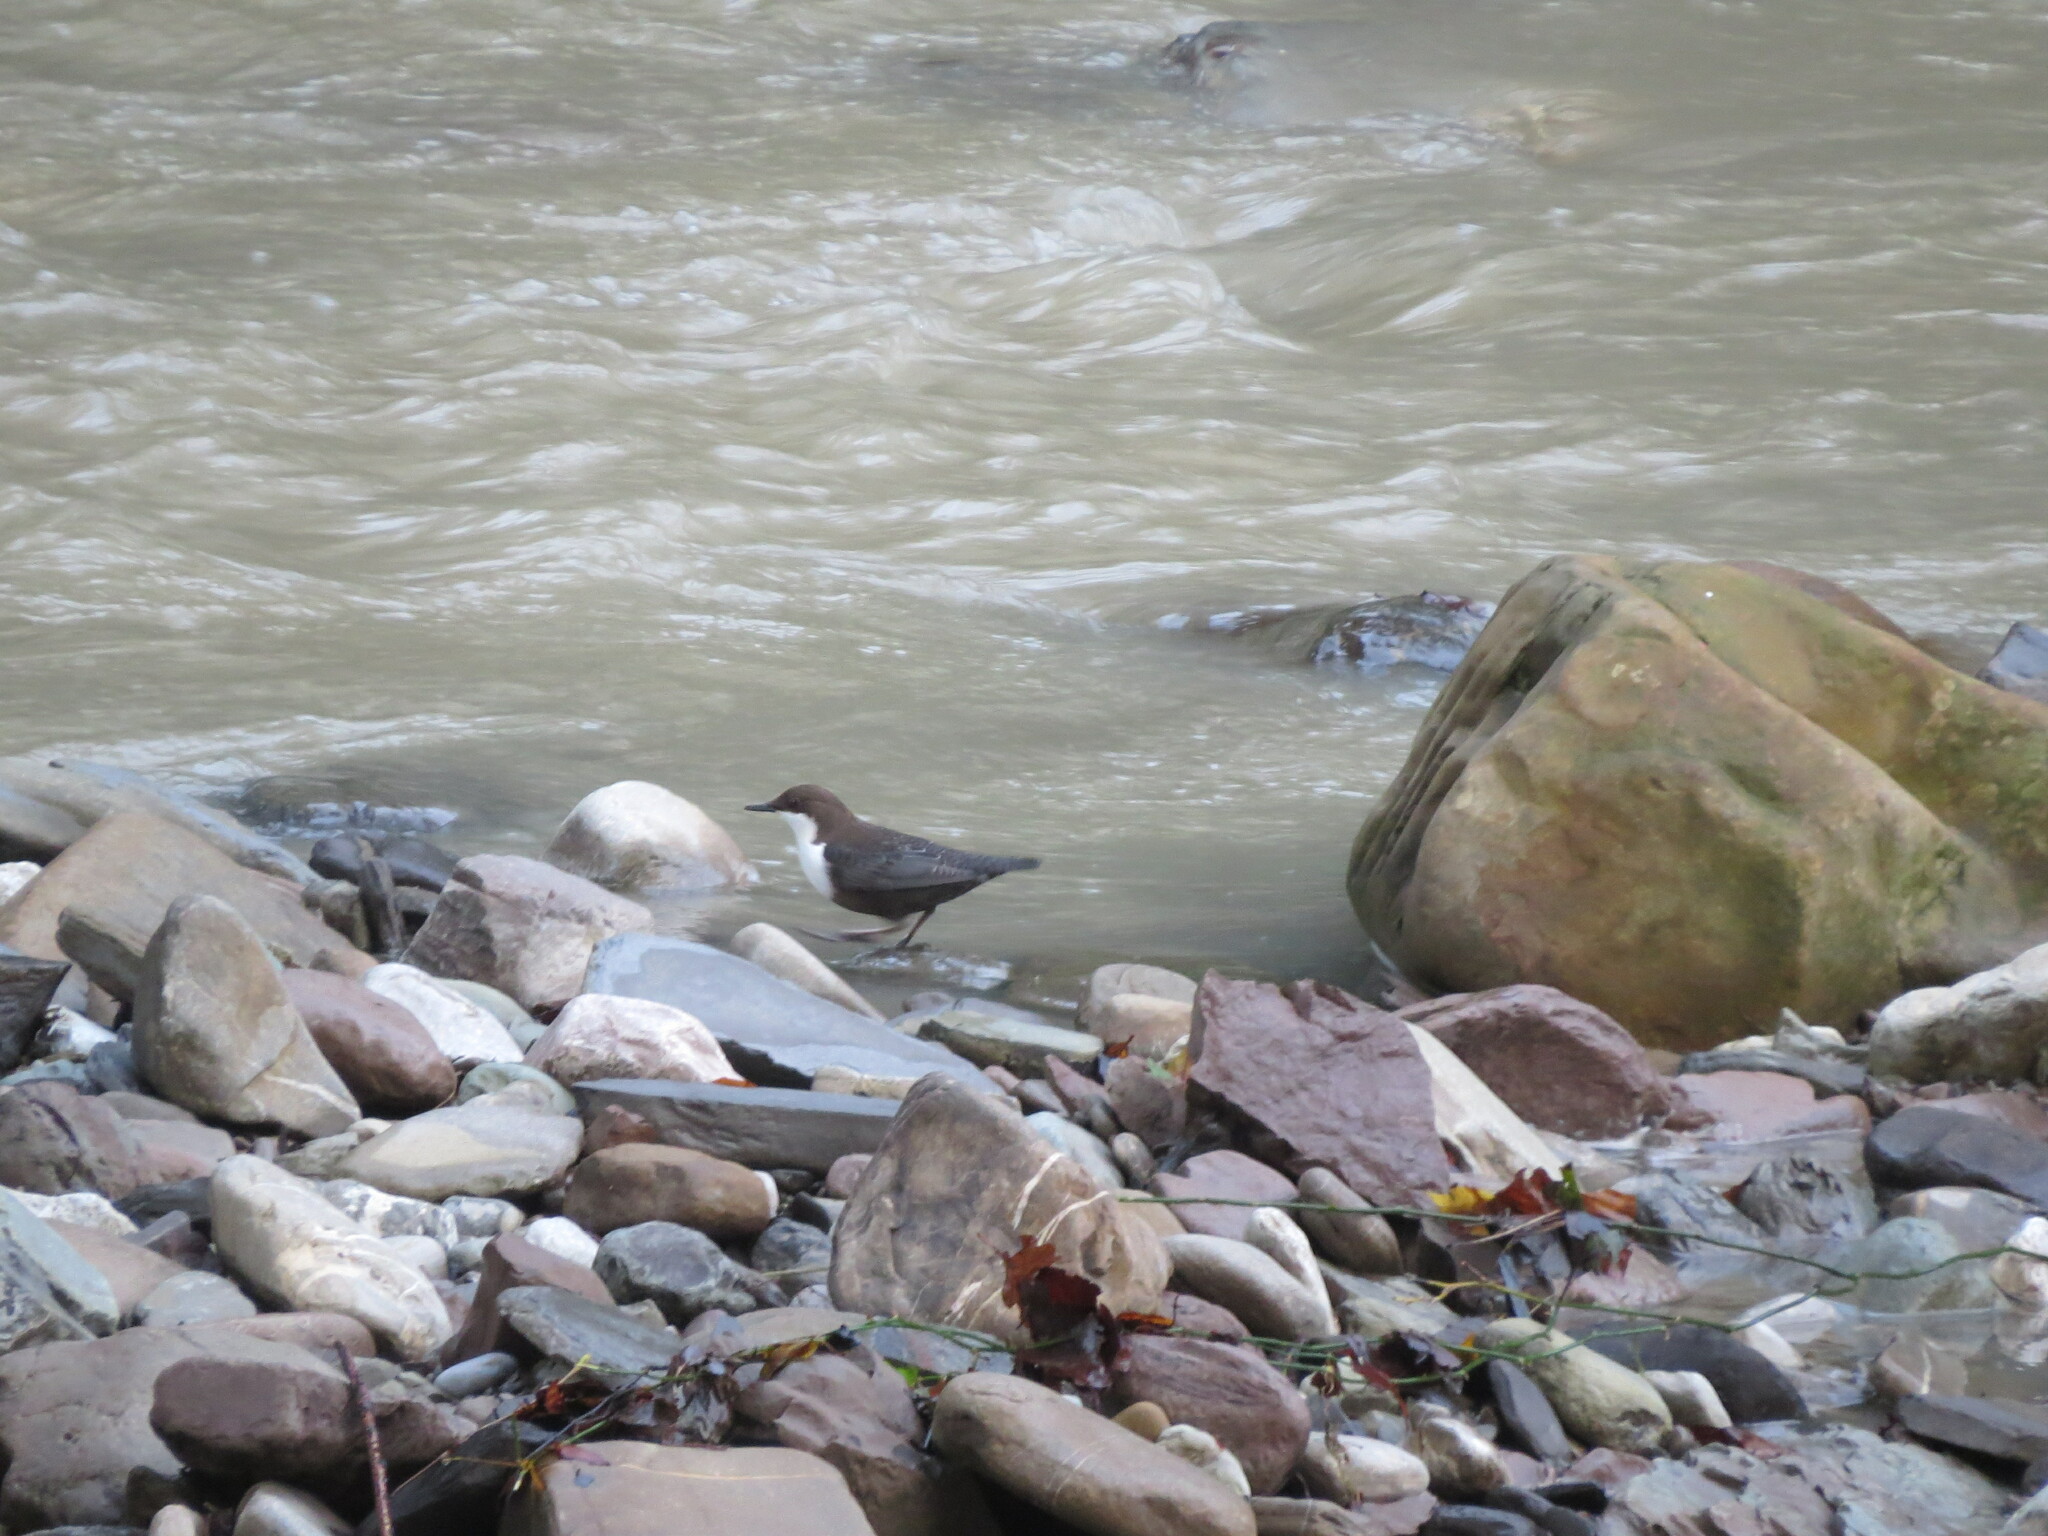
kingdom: Animalia
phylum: Chordata
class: Aves
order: Passeriformes
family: Cinclidae
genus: Cinclus
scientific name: Cinclus cinclus
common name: White-throated dipper
